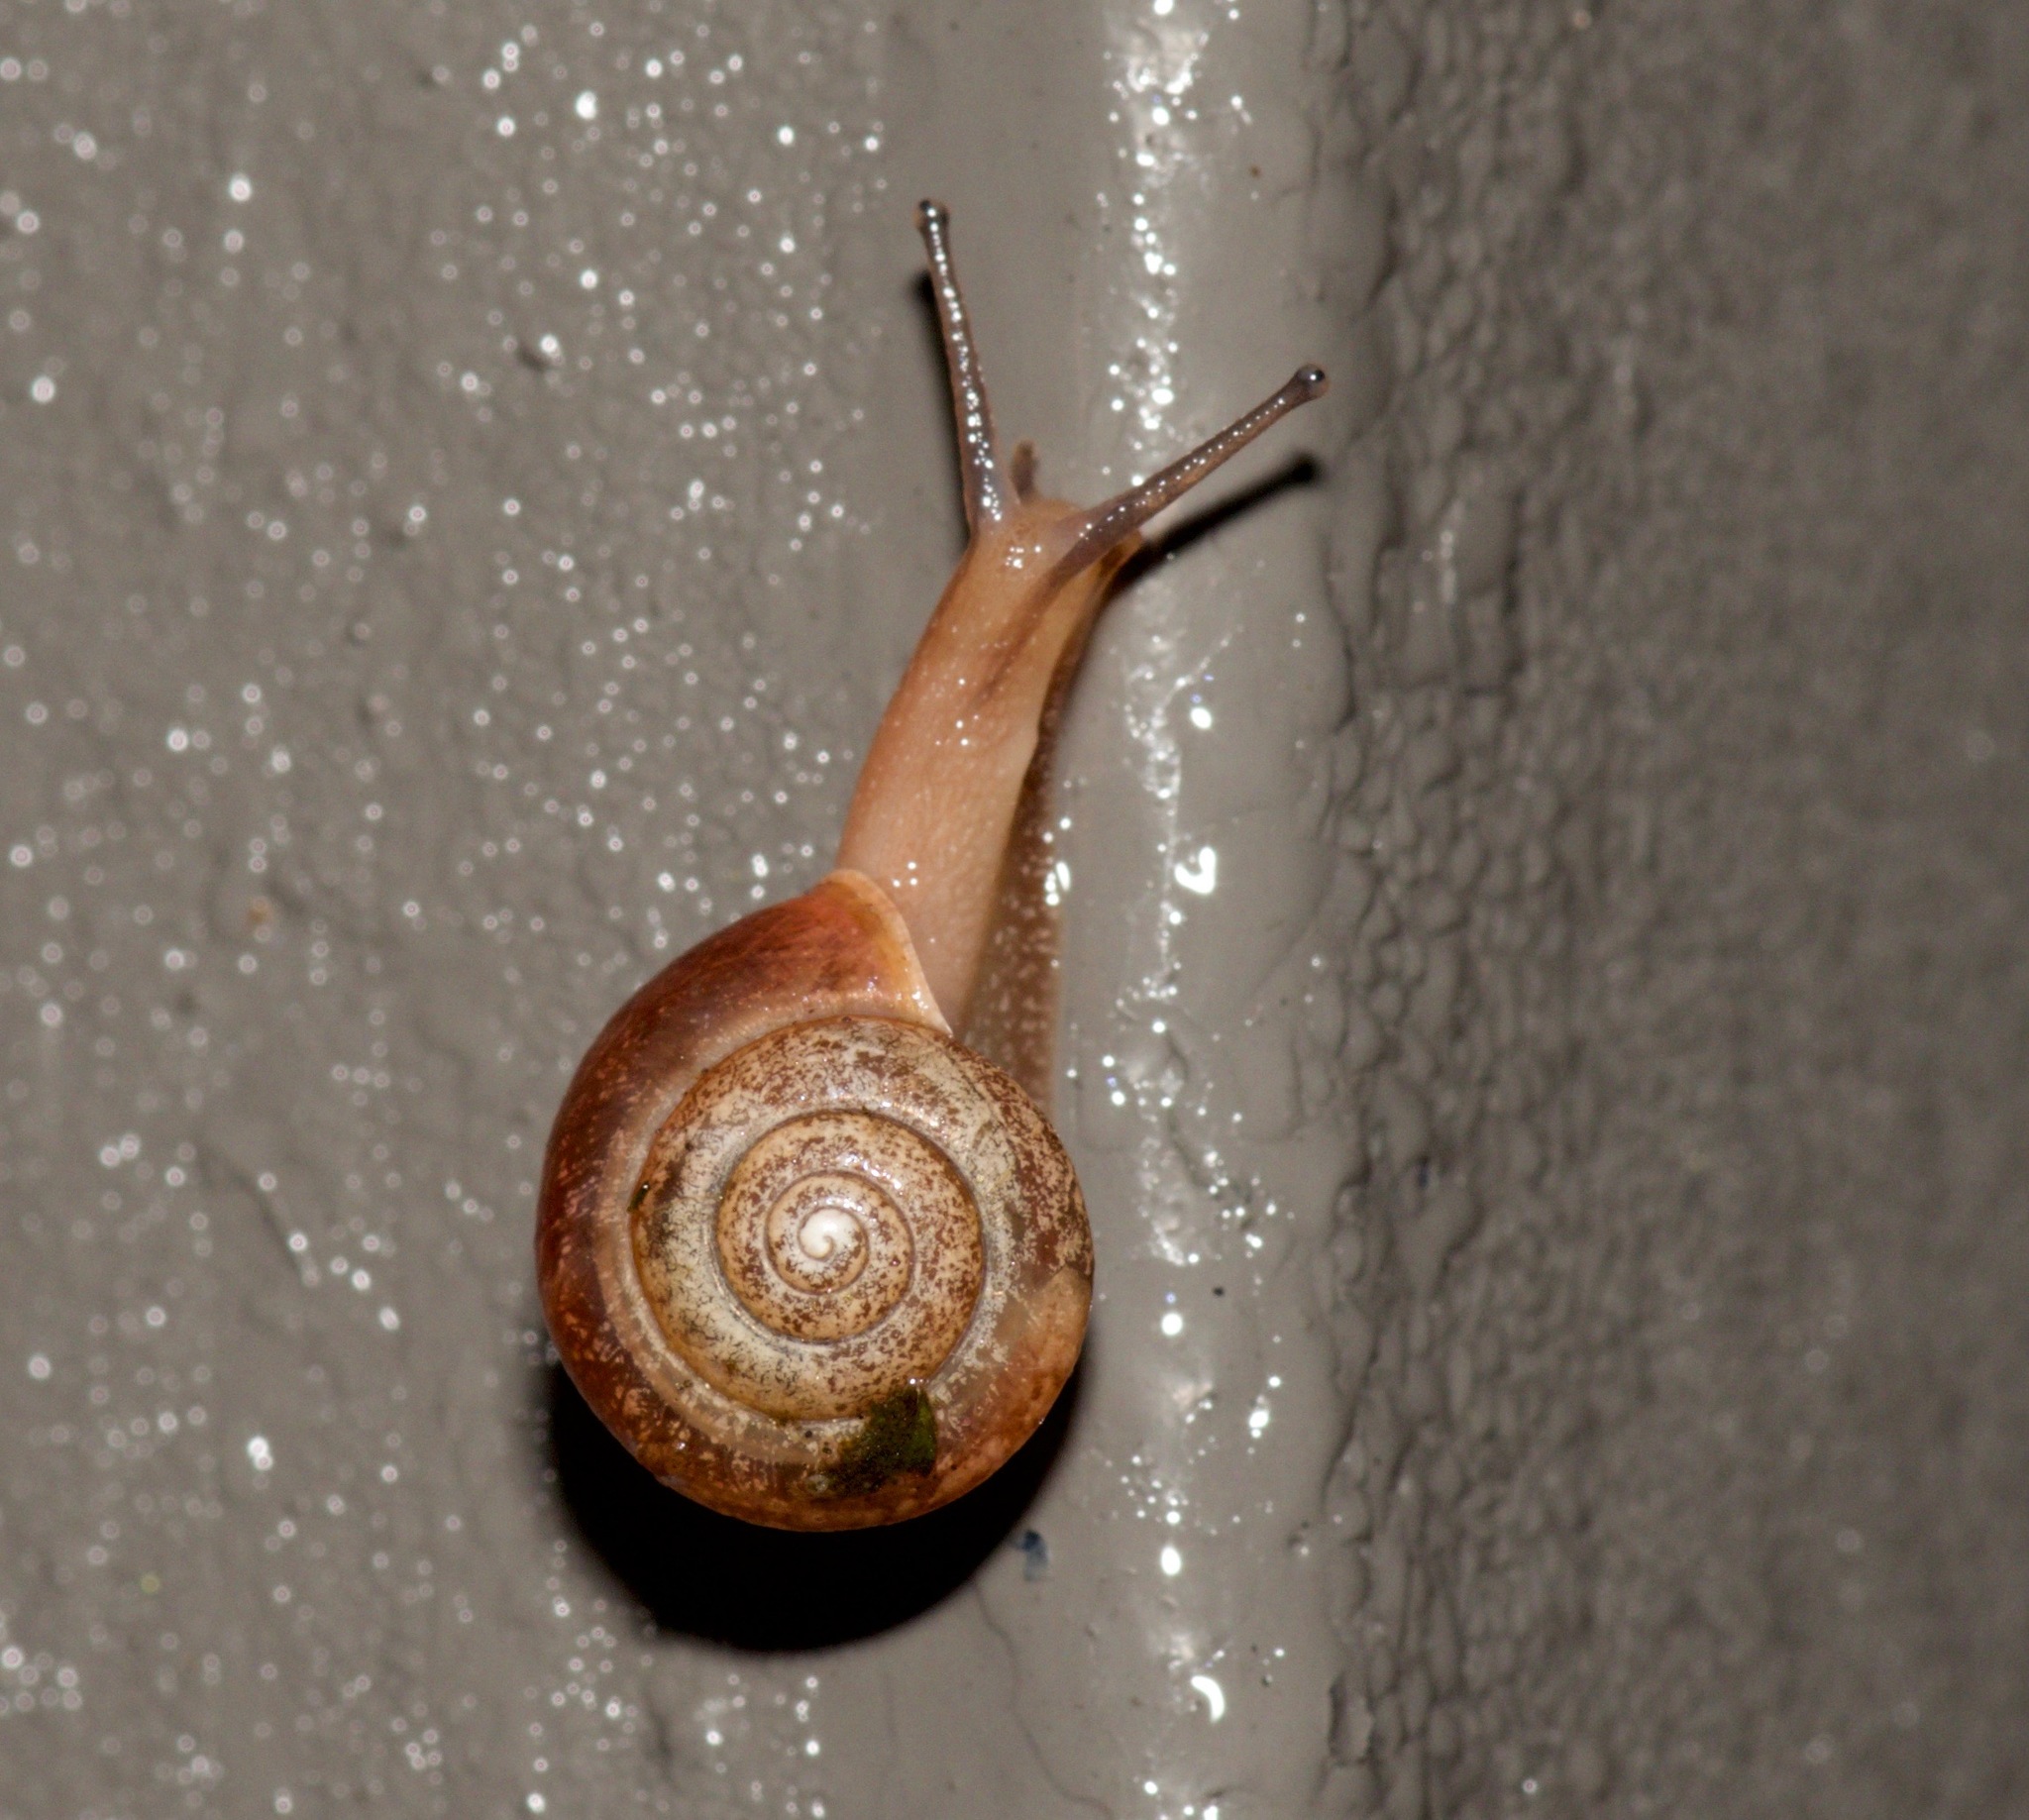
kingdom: Animalia
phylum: Mollusca
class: Gastropoda
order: Stylommatophora
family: Camaenidae
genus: Bradybaena
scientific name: Bradybaena similaris
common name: Asian trampsnail
